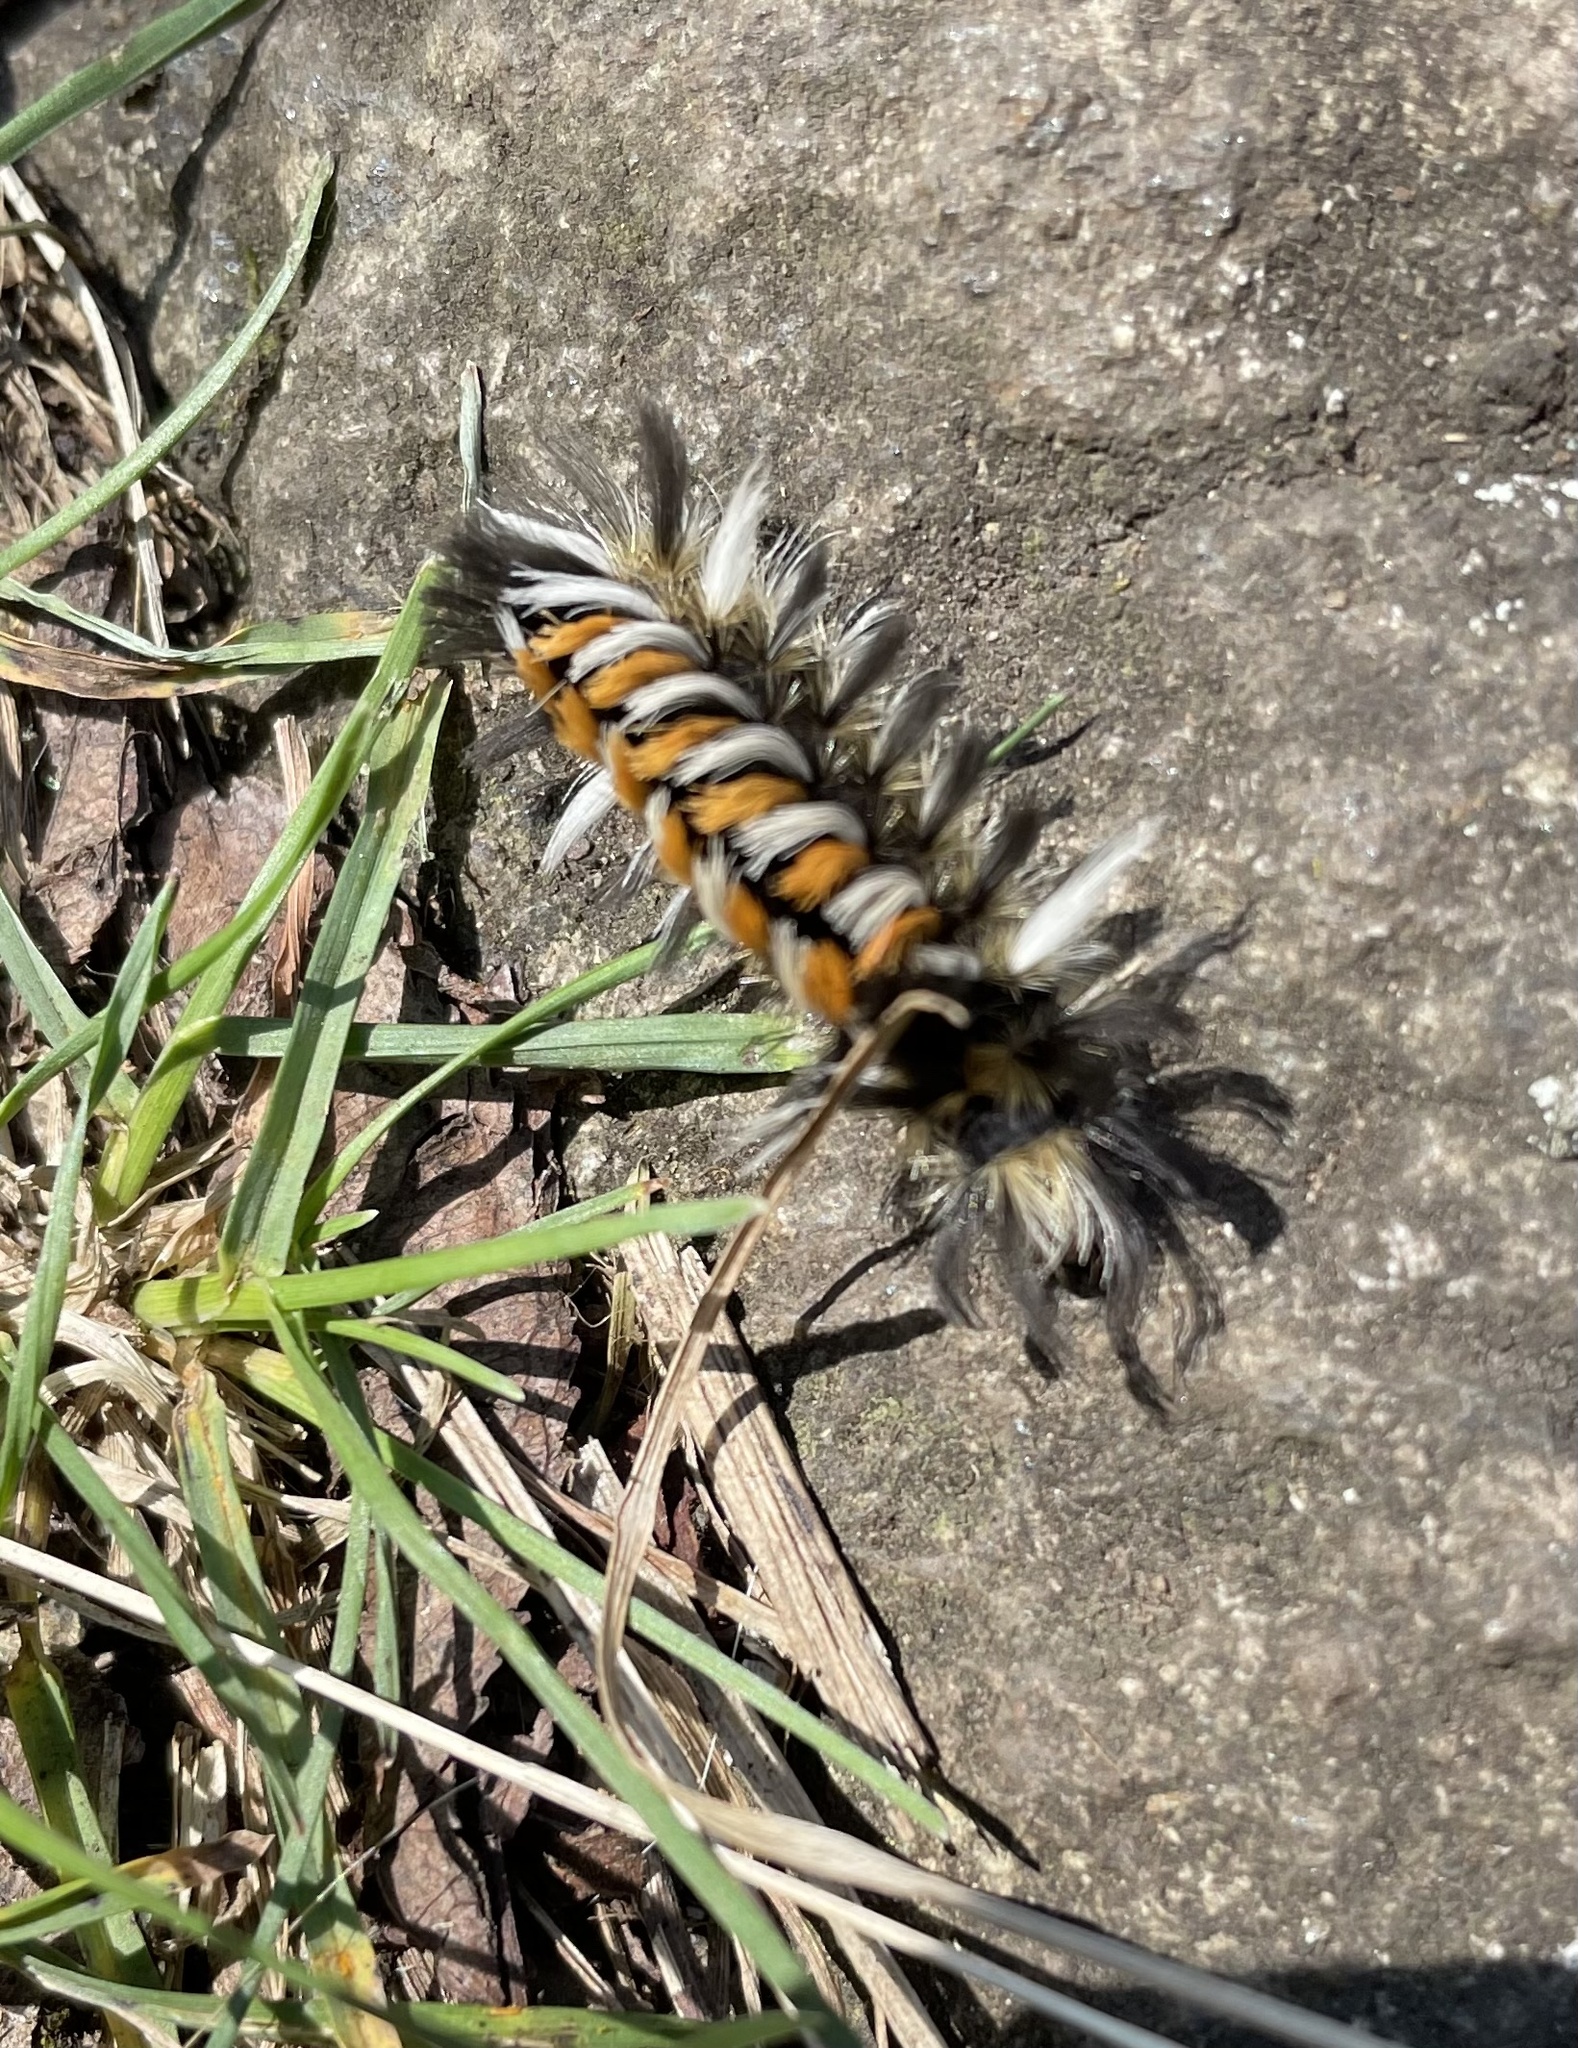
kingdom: Animalia
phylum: Arthropoda
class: Insecta
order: Lepidoptera
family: Erebidae
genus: Euchaetes
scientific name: Euchaetes egle
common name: Milkweed tussock moth
